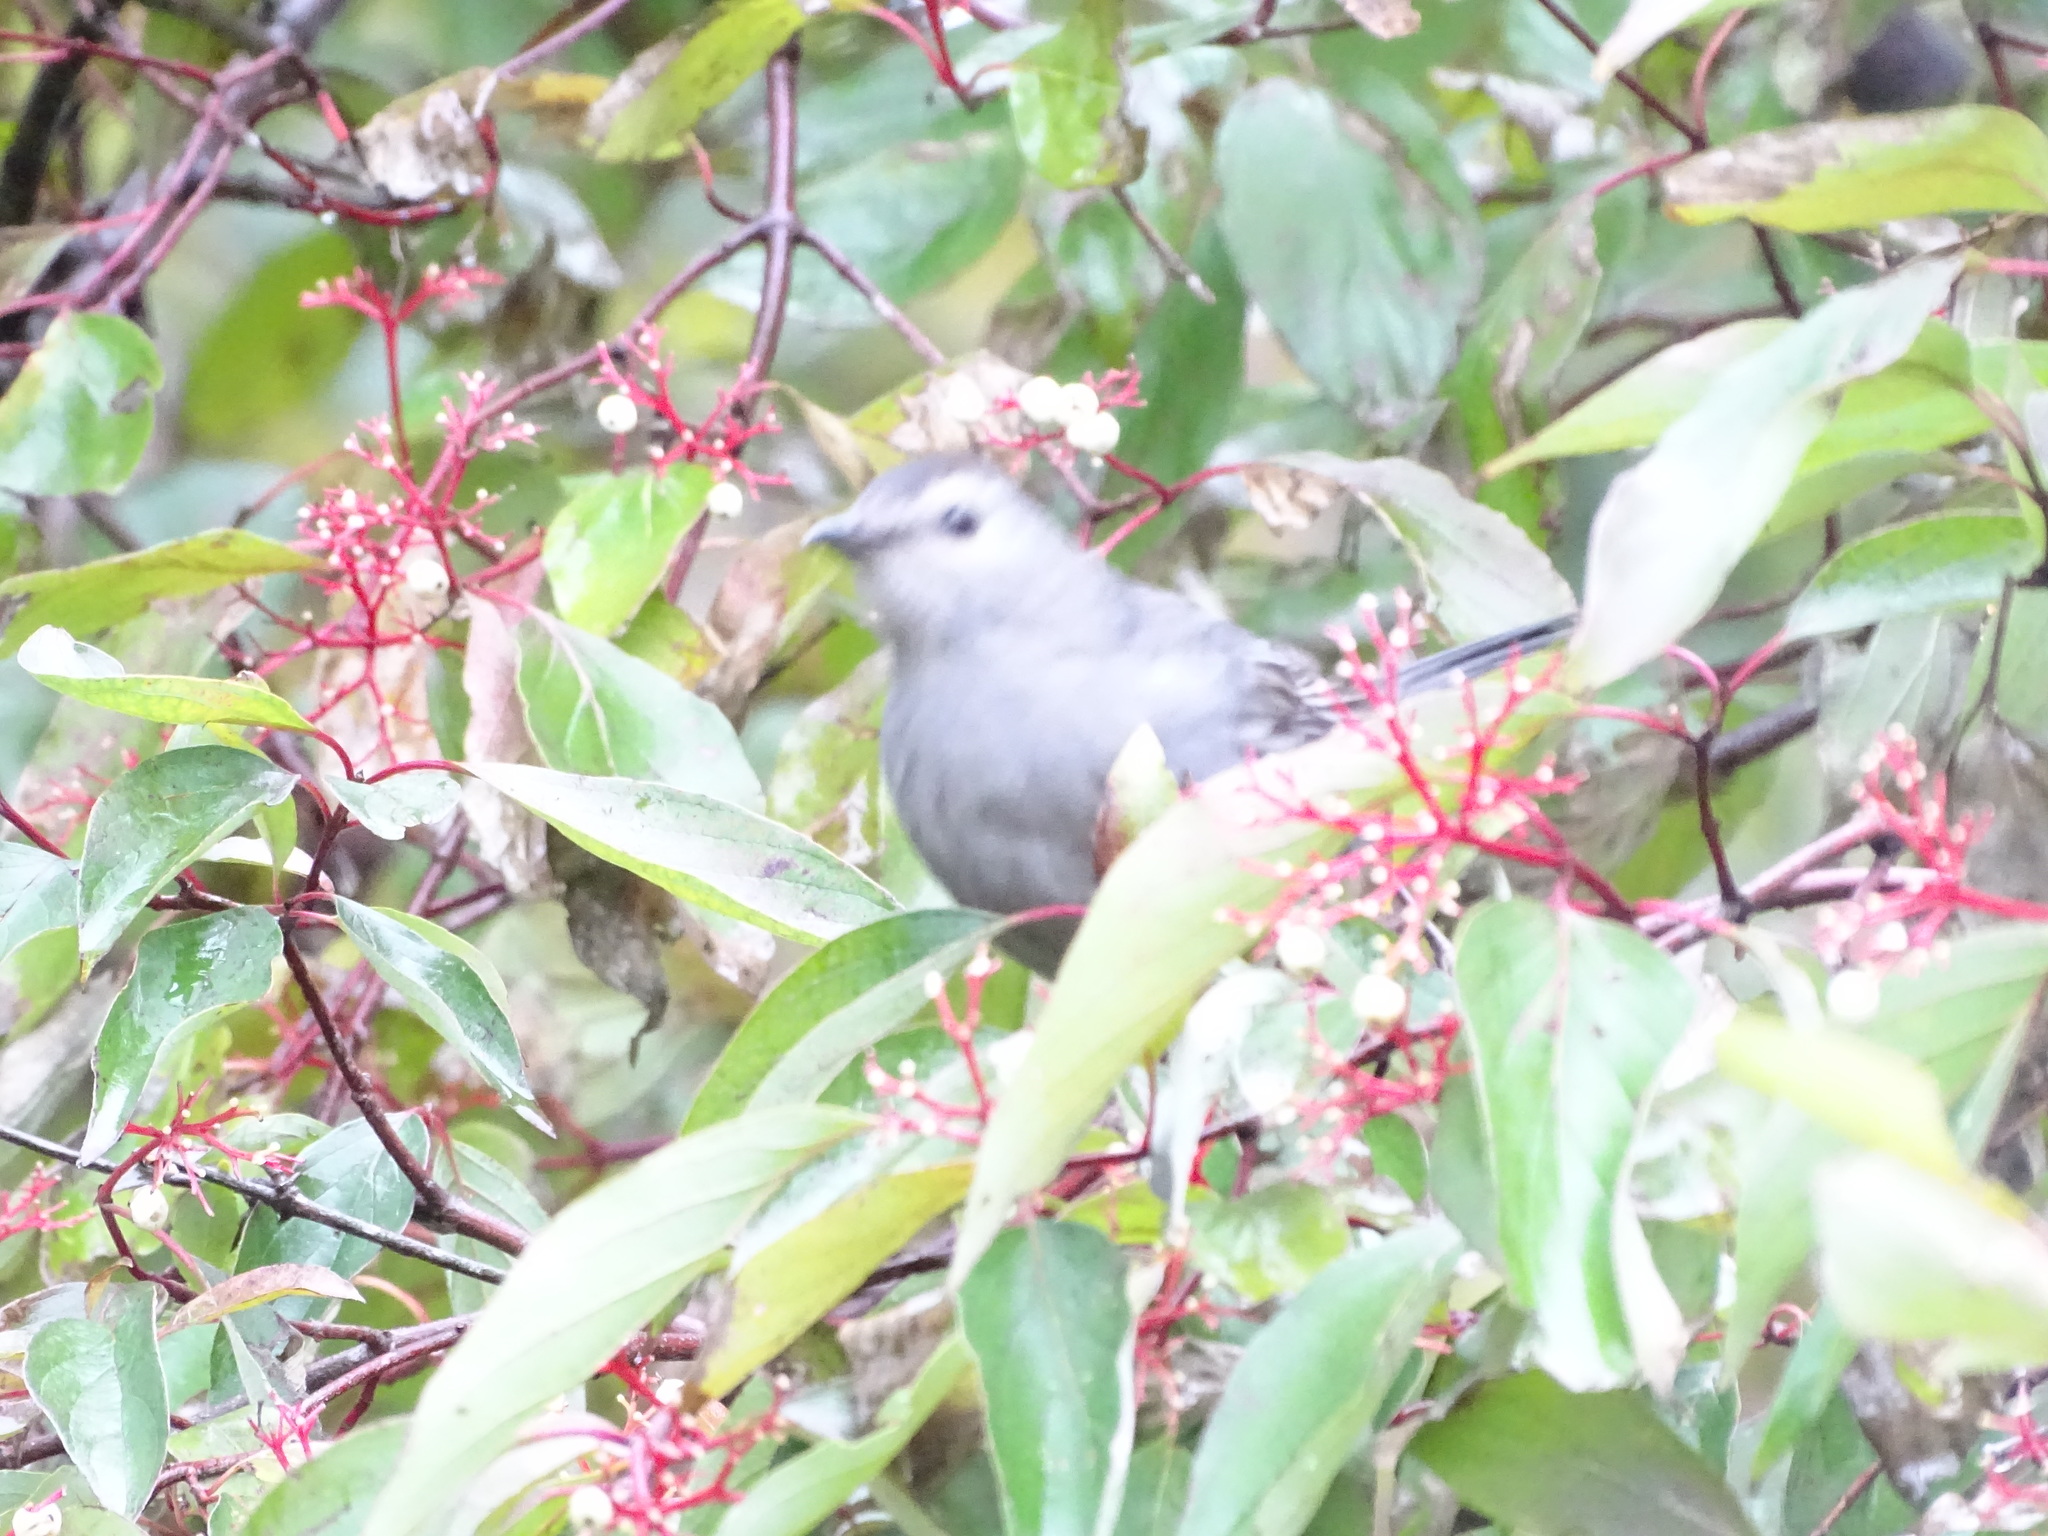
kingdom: Animalia
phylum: Chordata
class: Aves
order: Passeriformes
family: Mimidae
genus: Dumetella
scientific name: Dumetella carolinensis
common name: Gray catbird
